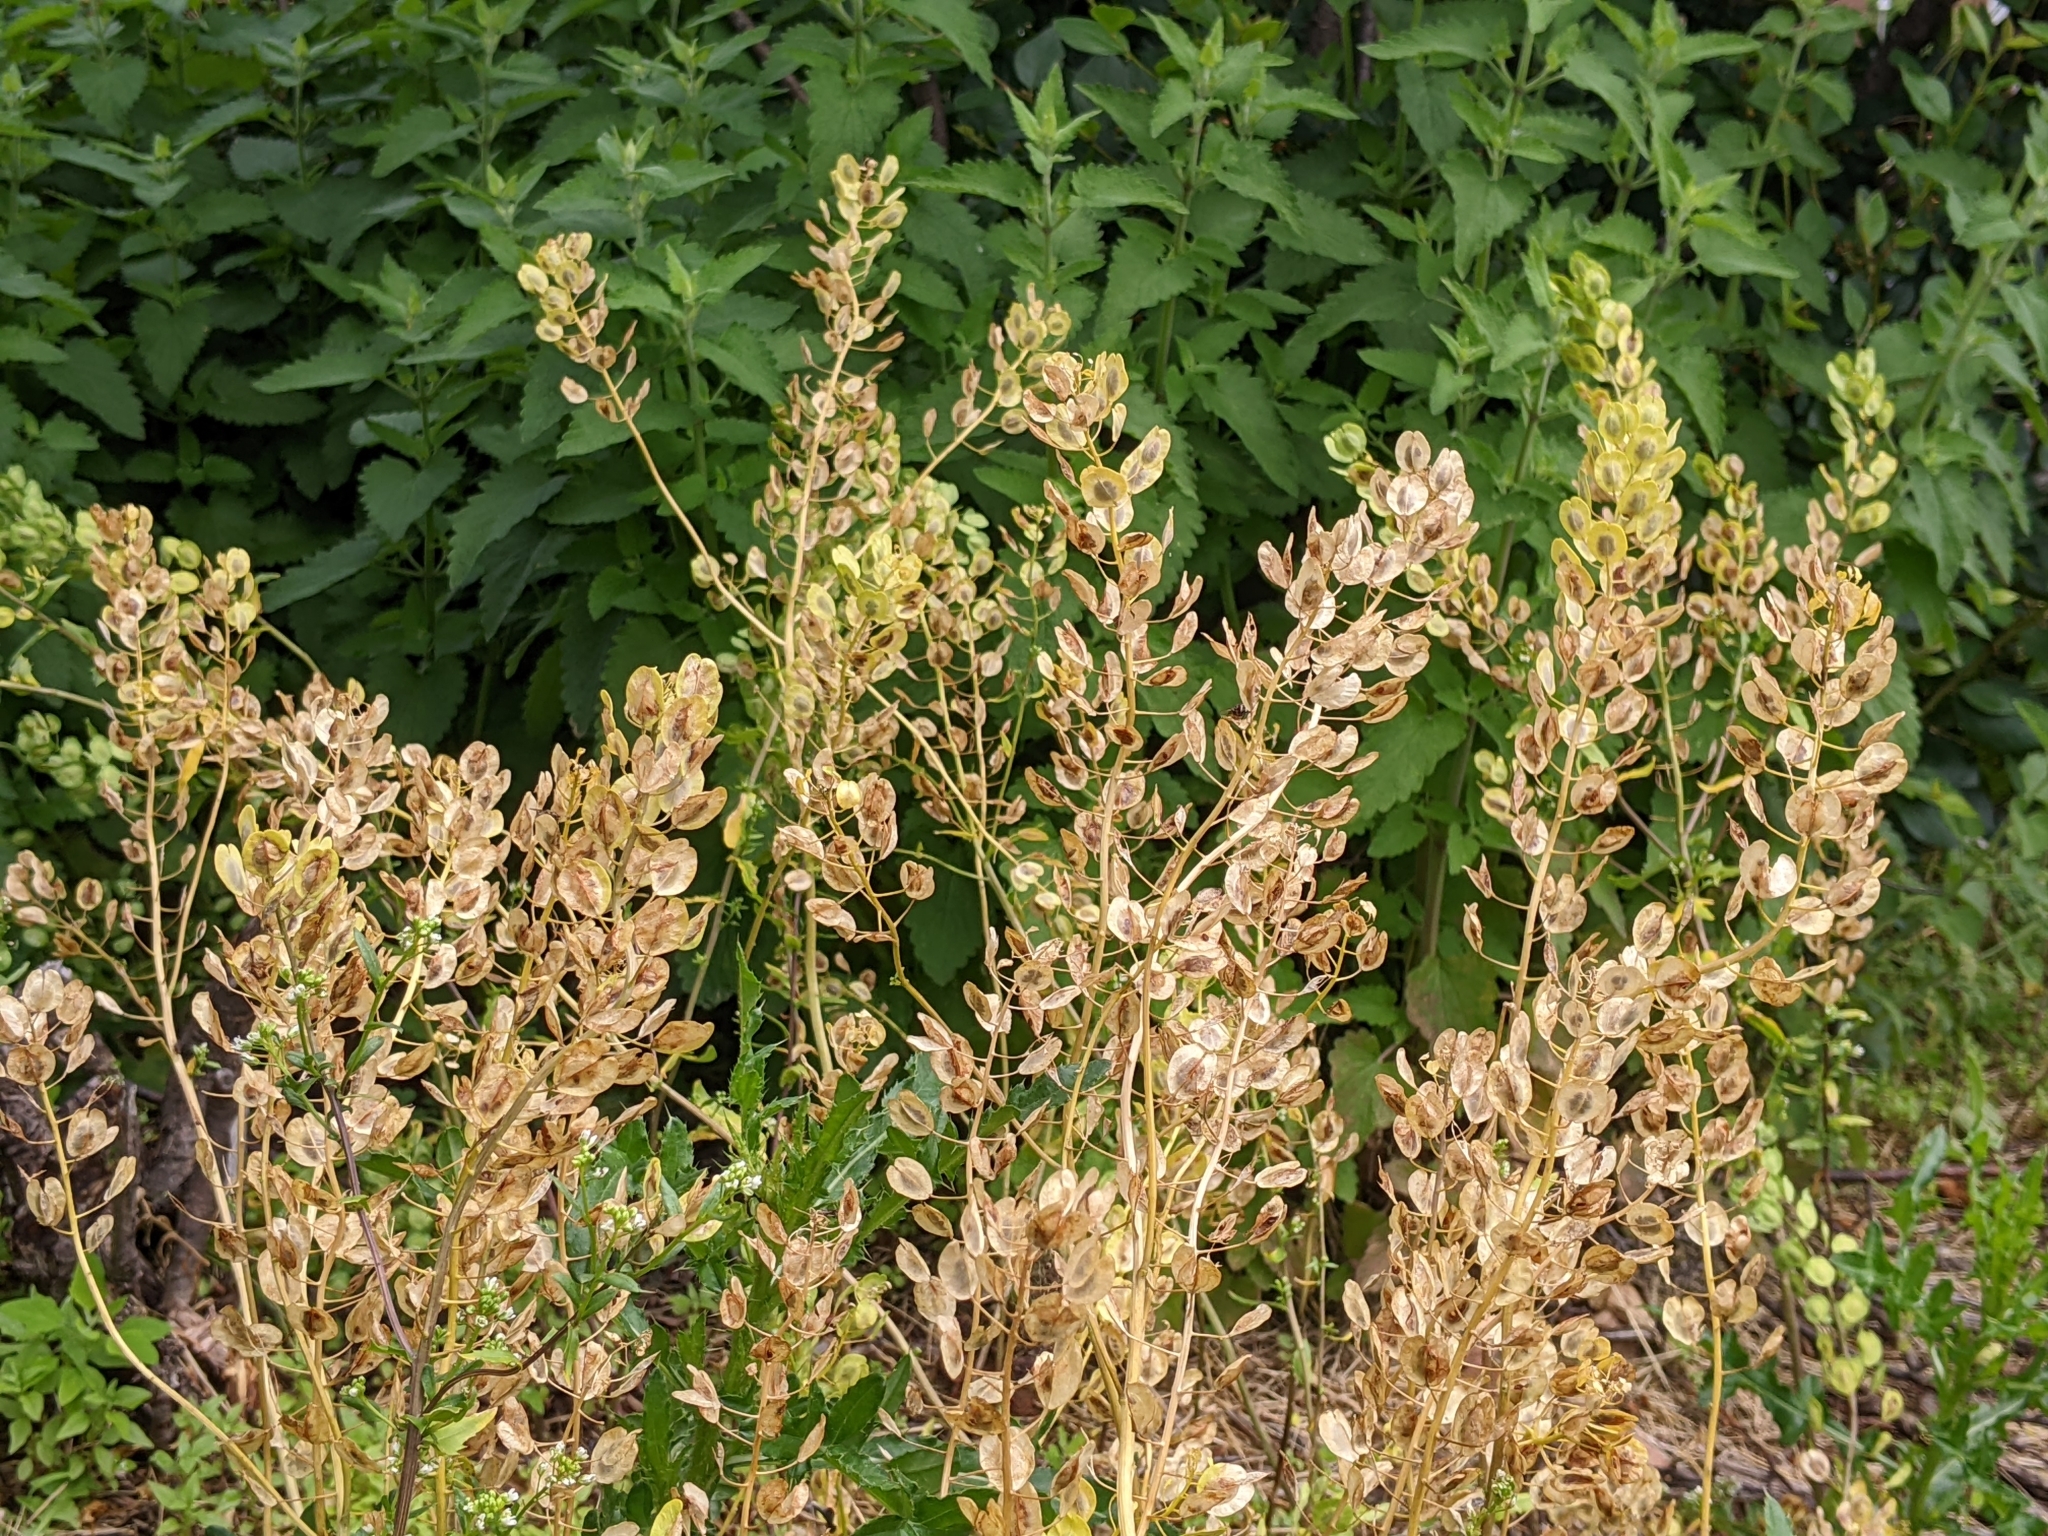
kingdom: Plantae
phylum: Tracheophyta
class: Magnoliopsida
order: Brassicales
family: Brassicaceae
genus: Thlaspi
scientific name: Thlaspi arvense
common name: Field pennycress
